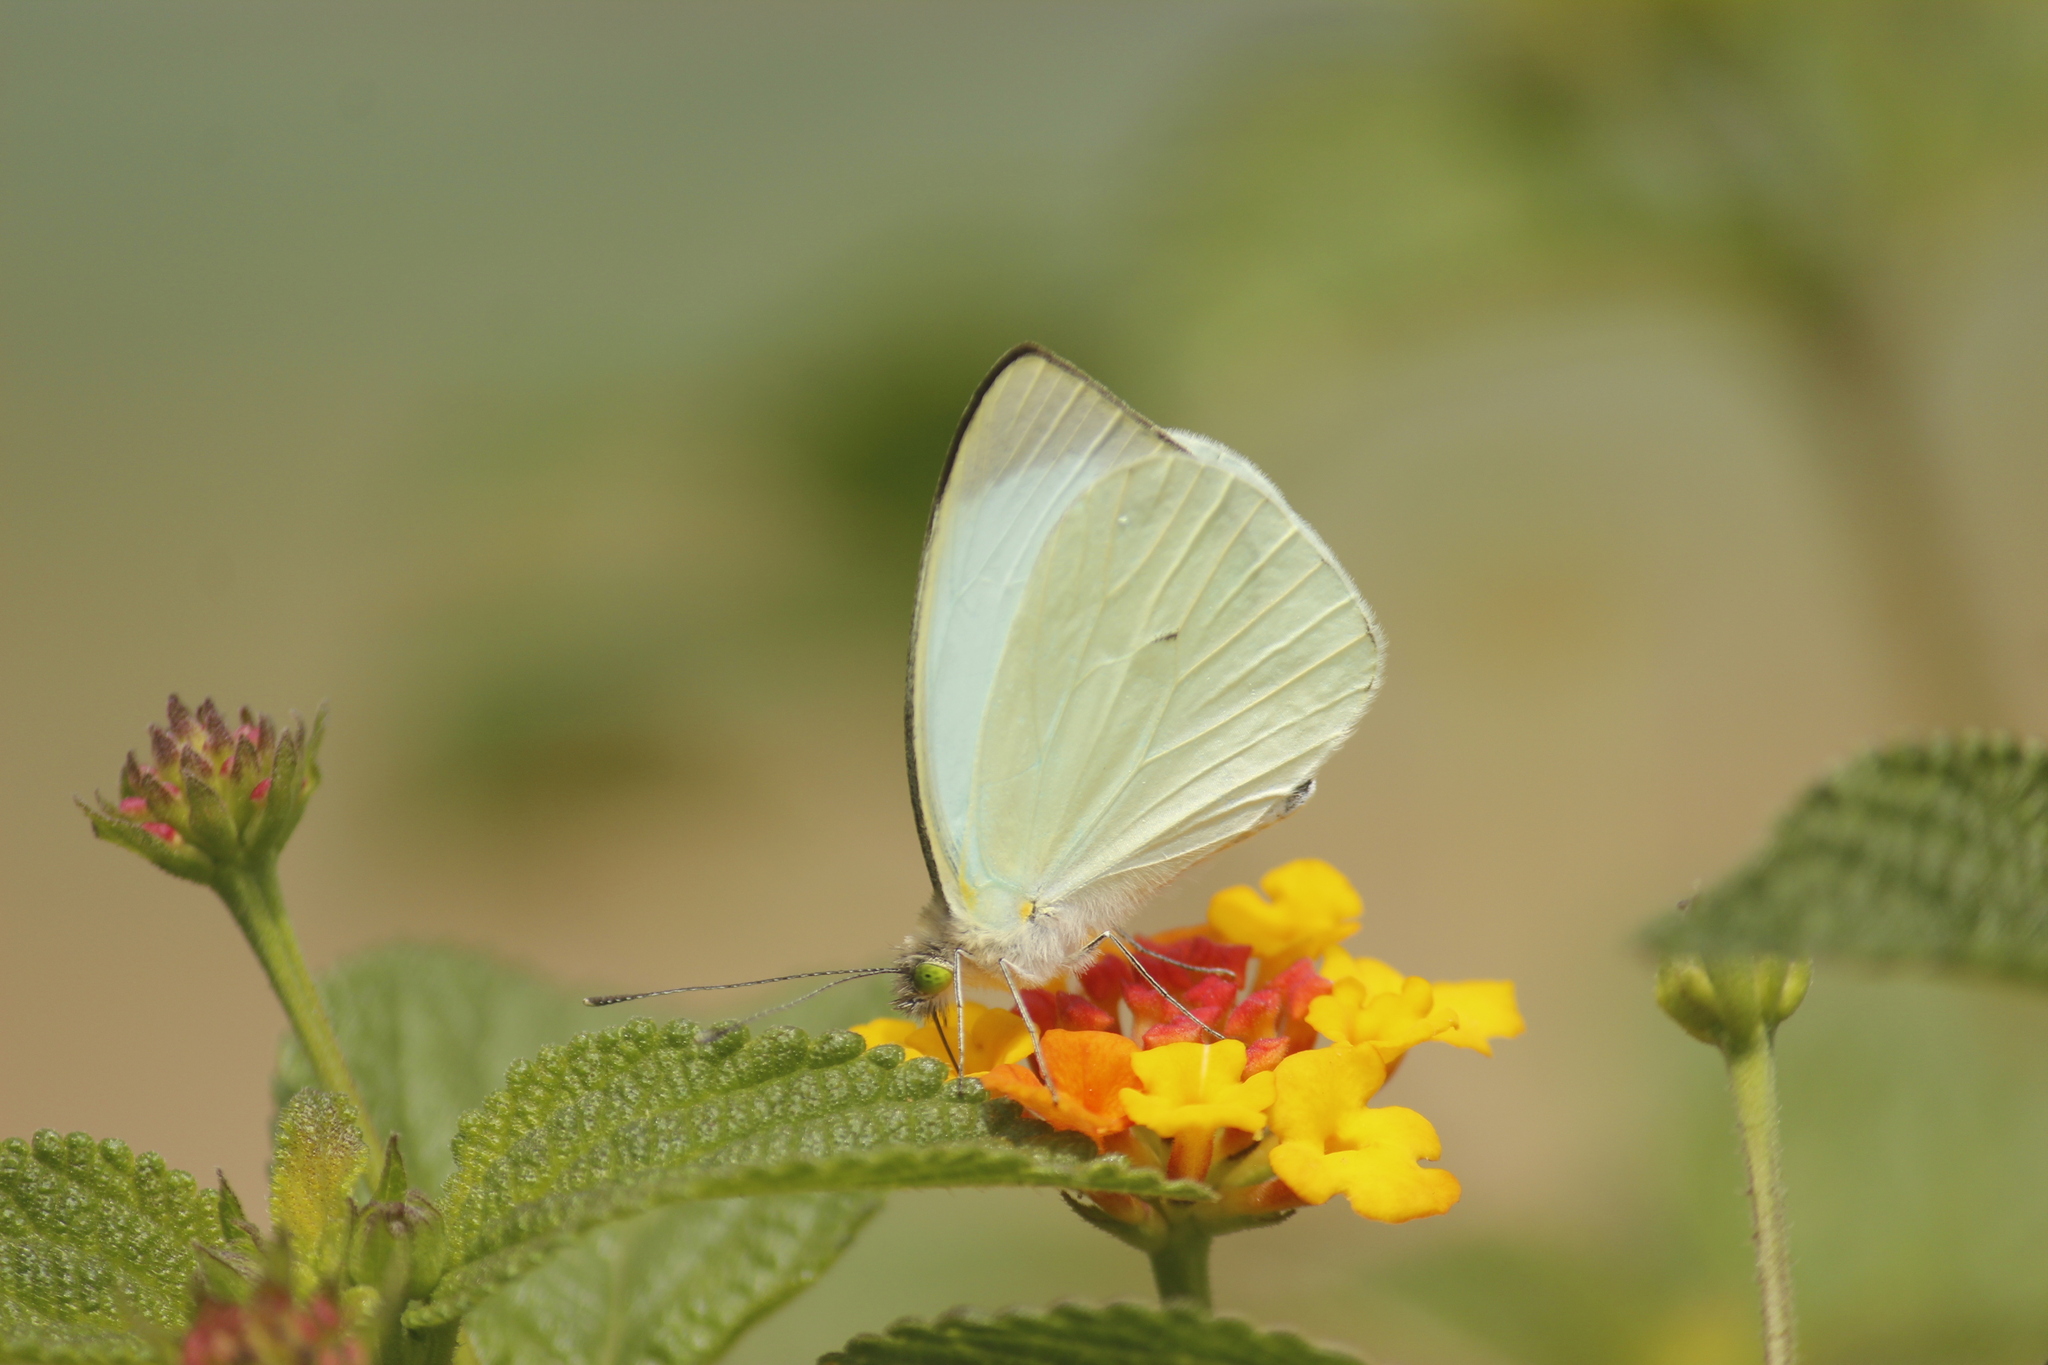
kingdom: Animalia
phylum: Arthropoda
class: Insecta
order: Lepidoptera
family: Pieridae
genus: Leptophobia
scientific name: Leptophobia aripa
